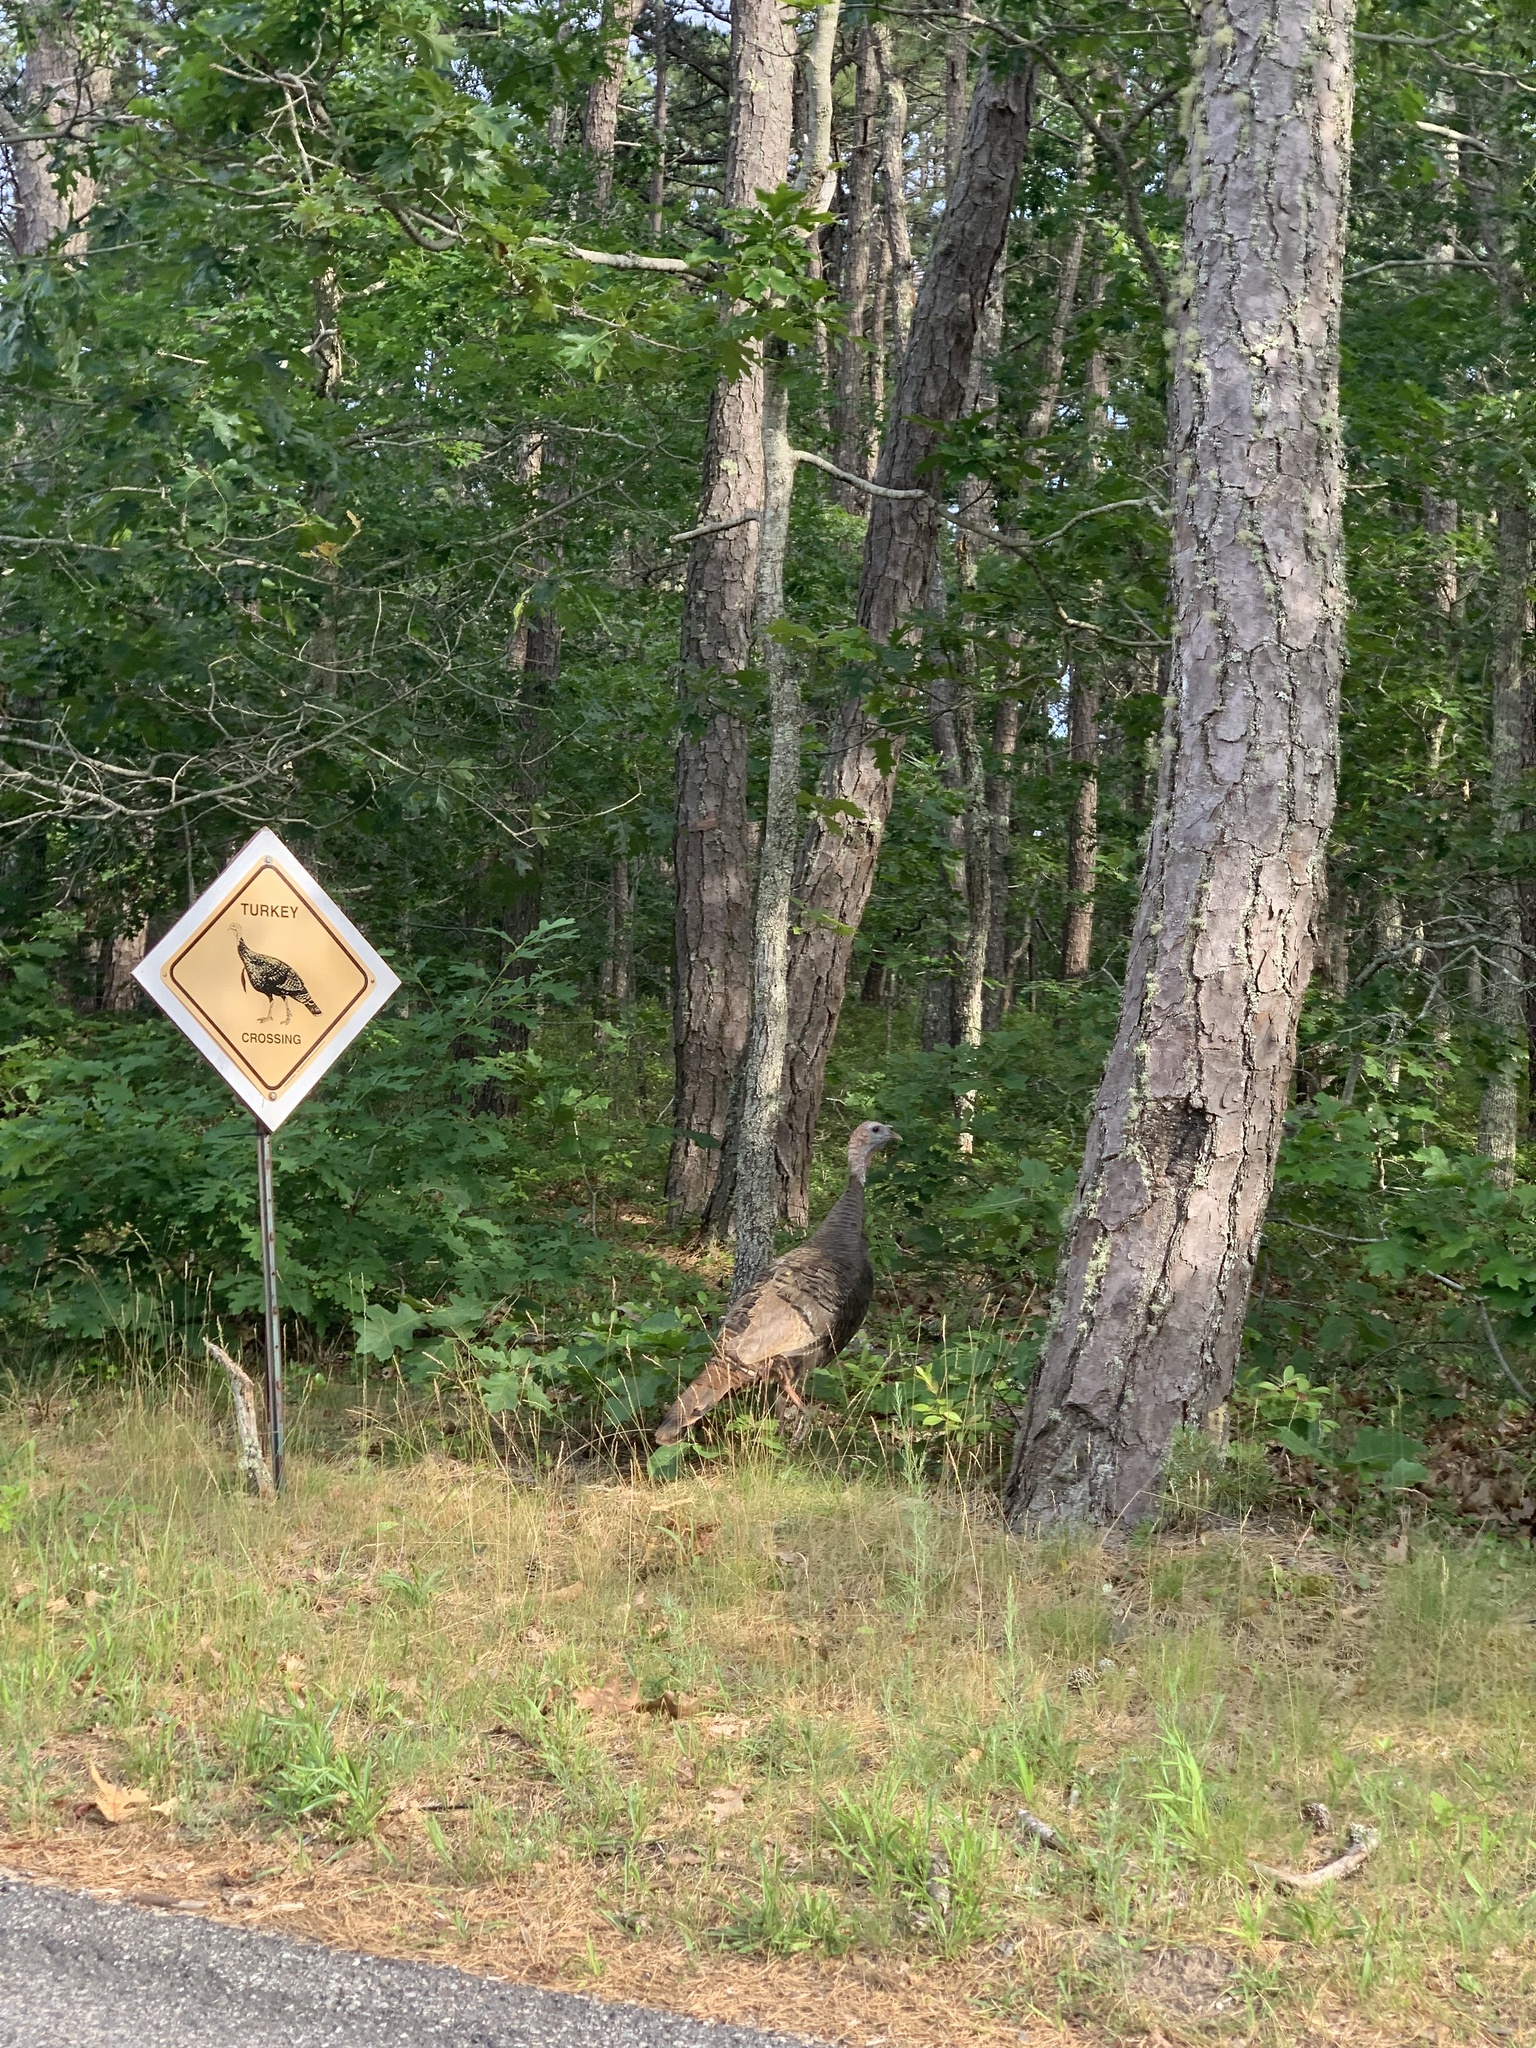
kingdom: Animalia
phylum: Chordata
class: Aves
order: Galliformes
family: Phasianidae
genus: Meleagris
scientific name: Meleagris gallopavo
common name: Wild turkey
